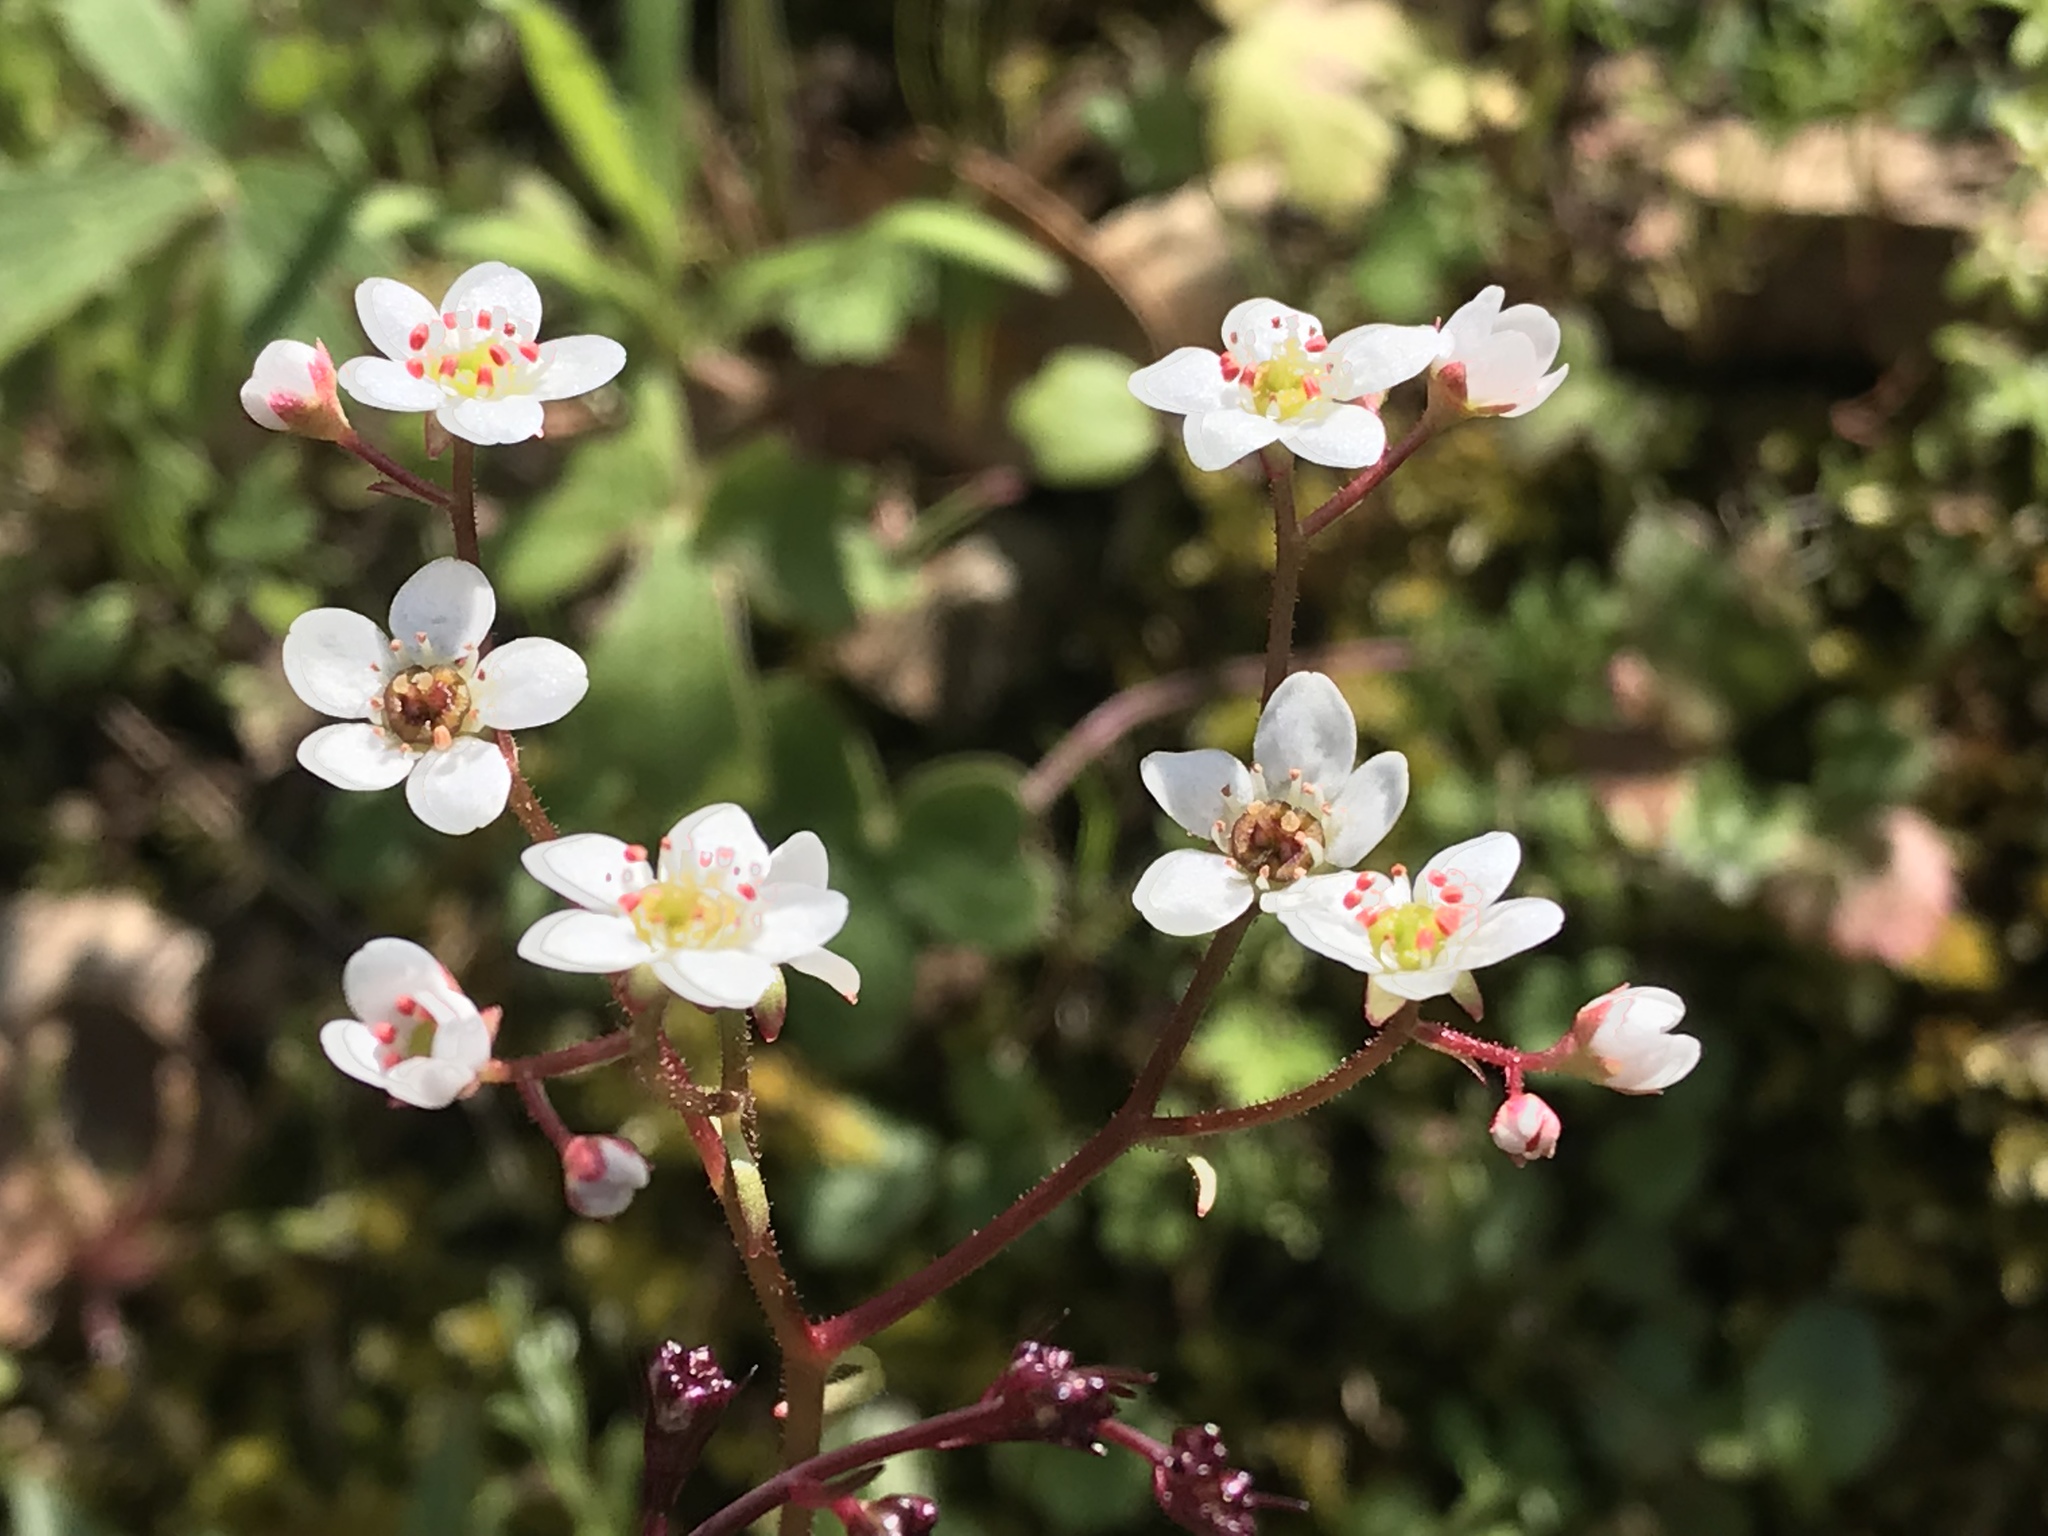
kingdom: Plantae
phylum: Tracheophyta
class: Magnoliopsida
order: Saxifragales
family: Saxifragaceae
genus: Micranthes
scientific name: Micranthes californica
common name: California saxifrage
